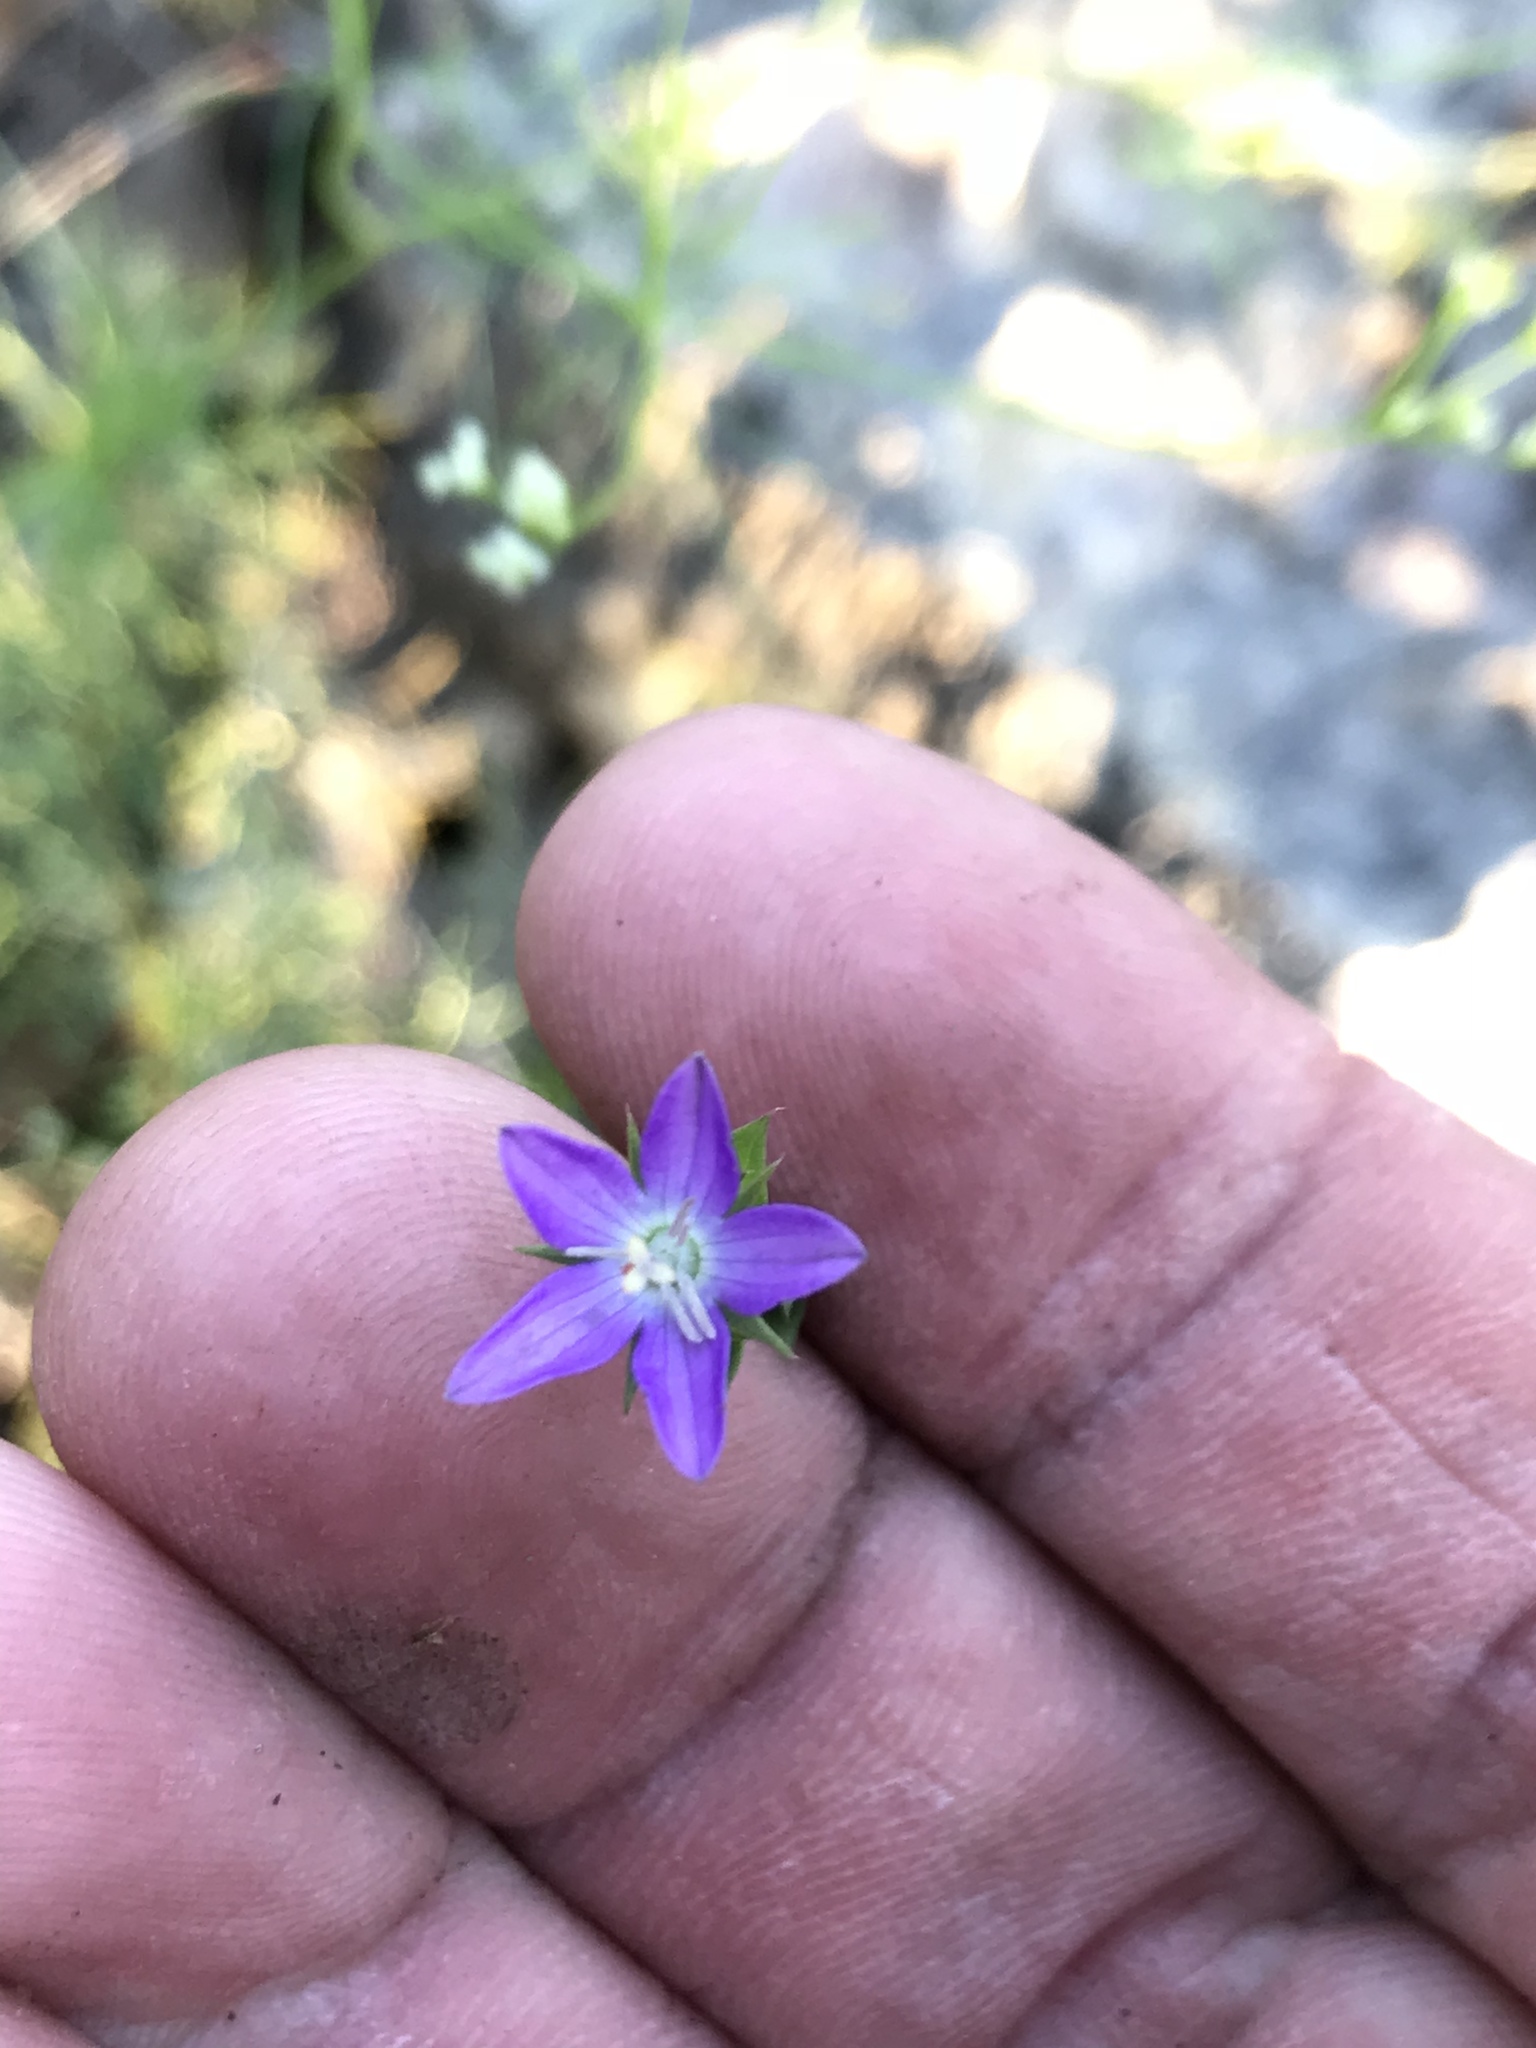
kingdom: Plantae
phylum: Tracheophyta
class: Magnoliopsida
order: Asterales
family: Campanulaceae
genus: Triodanis
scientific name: Triodanis biflora
